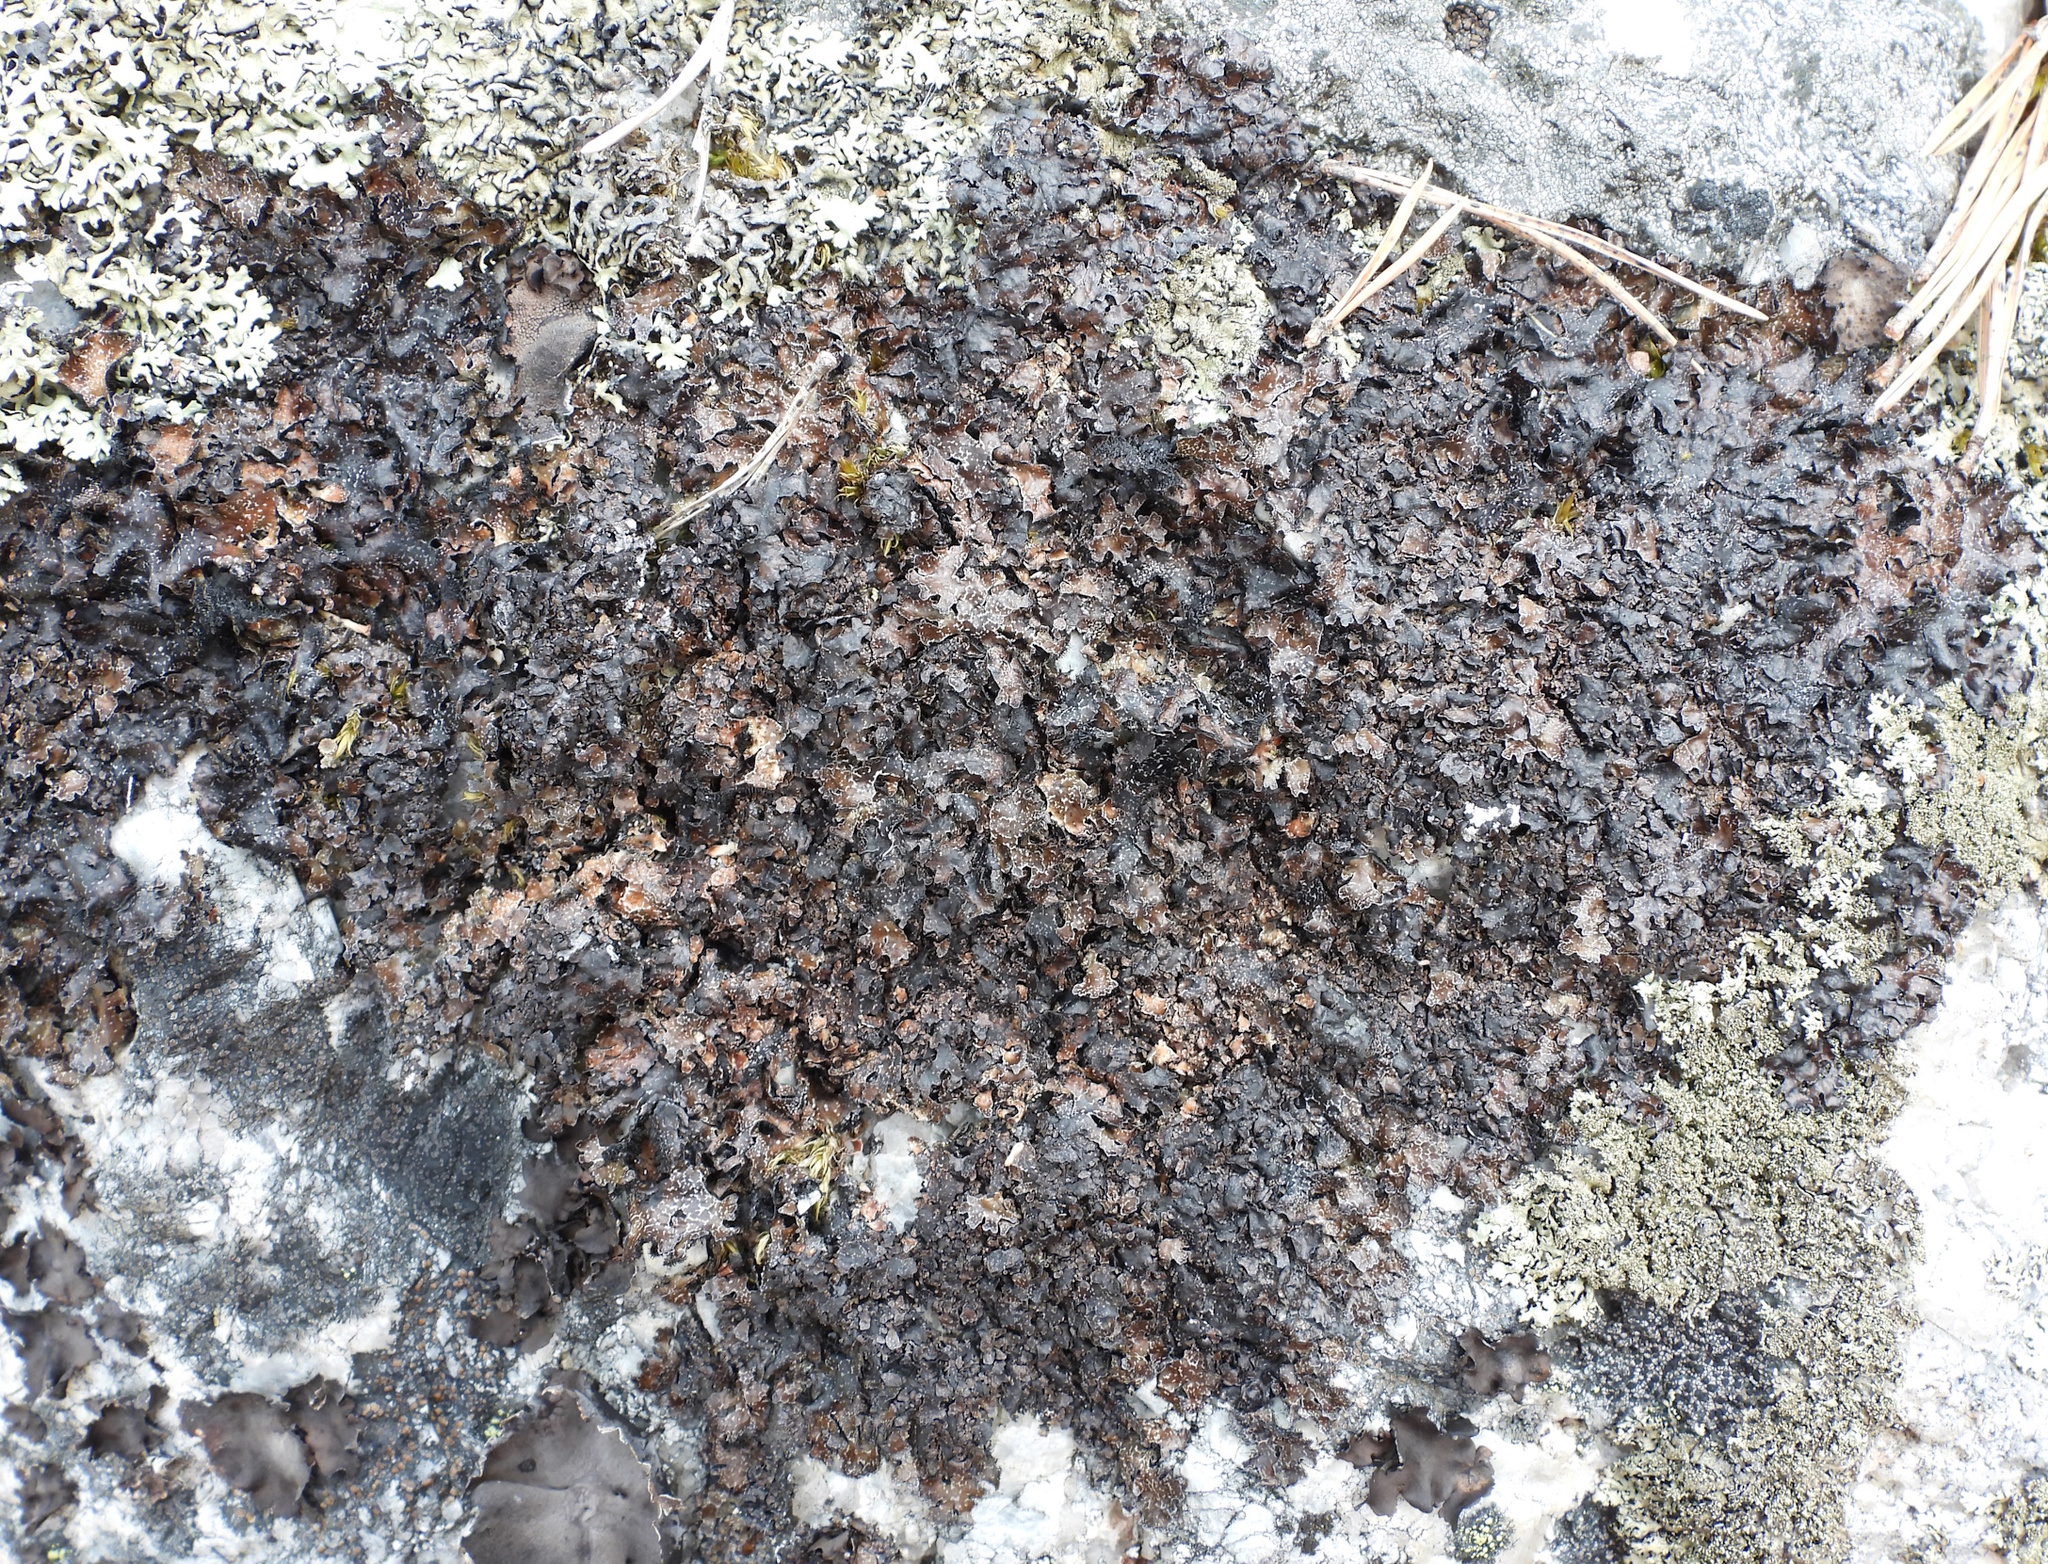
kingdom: Fungi
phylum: Ascomycota
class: Lecanoromycetes
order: Lecanorales
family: Parmeliaceae
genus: Parmelia
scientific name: Parmelia omphalodes
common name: Smoky crottle
